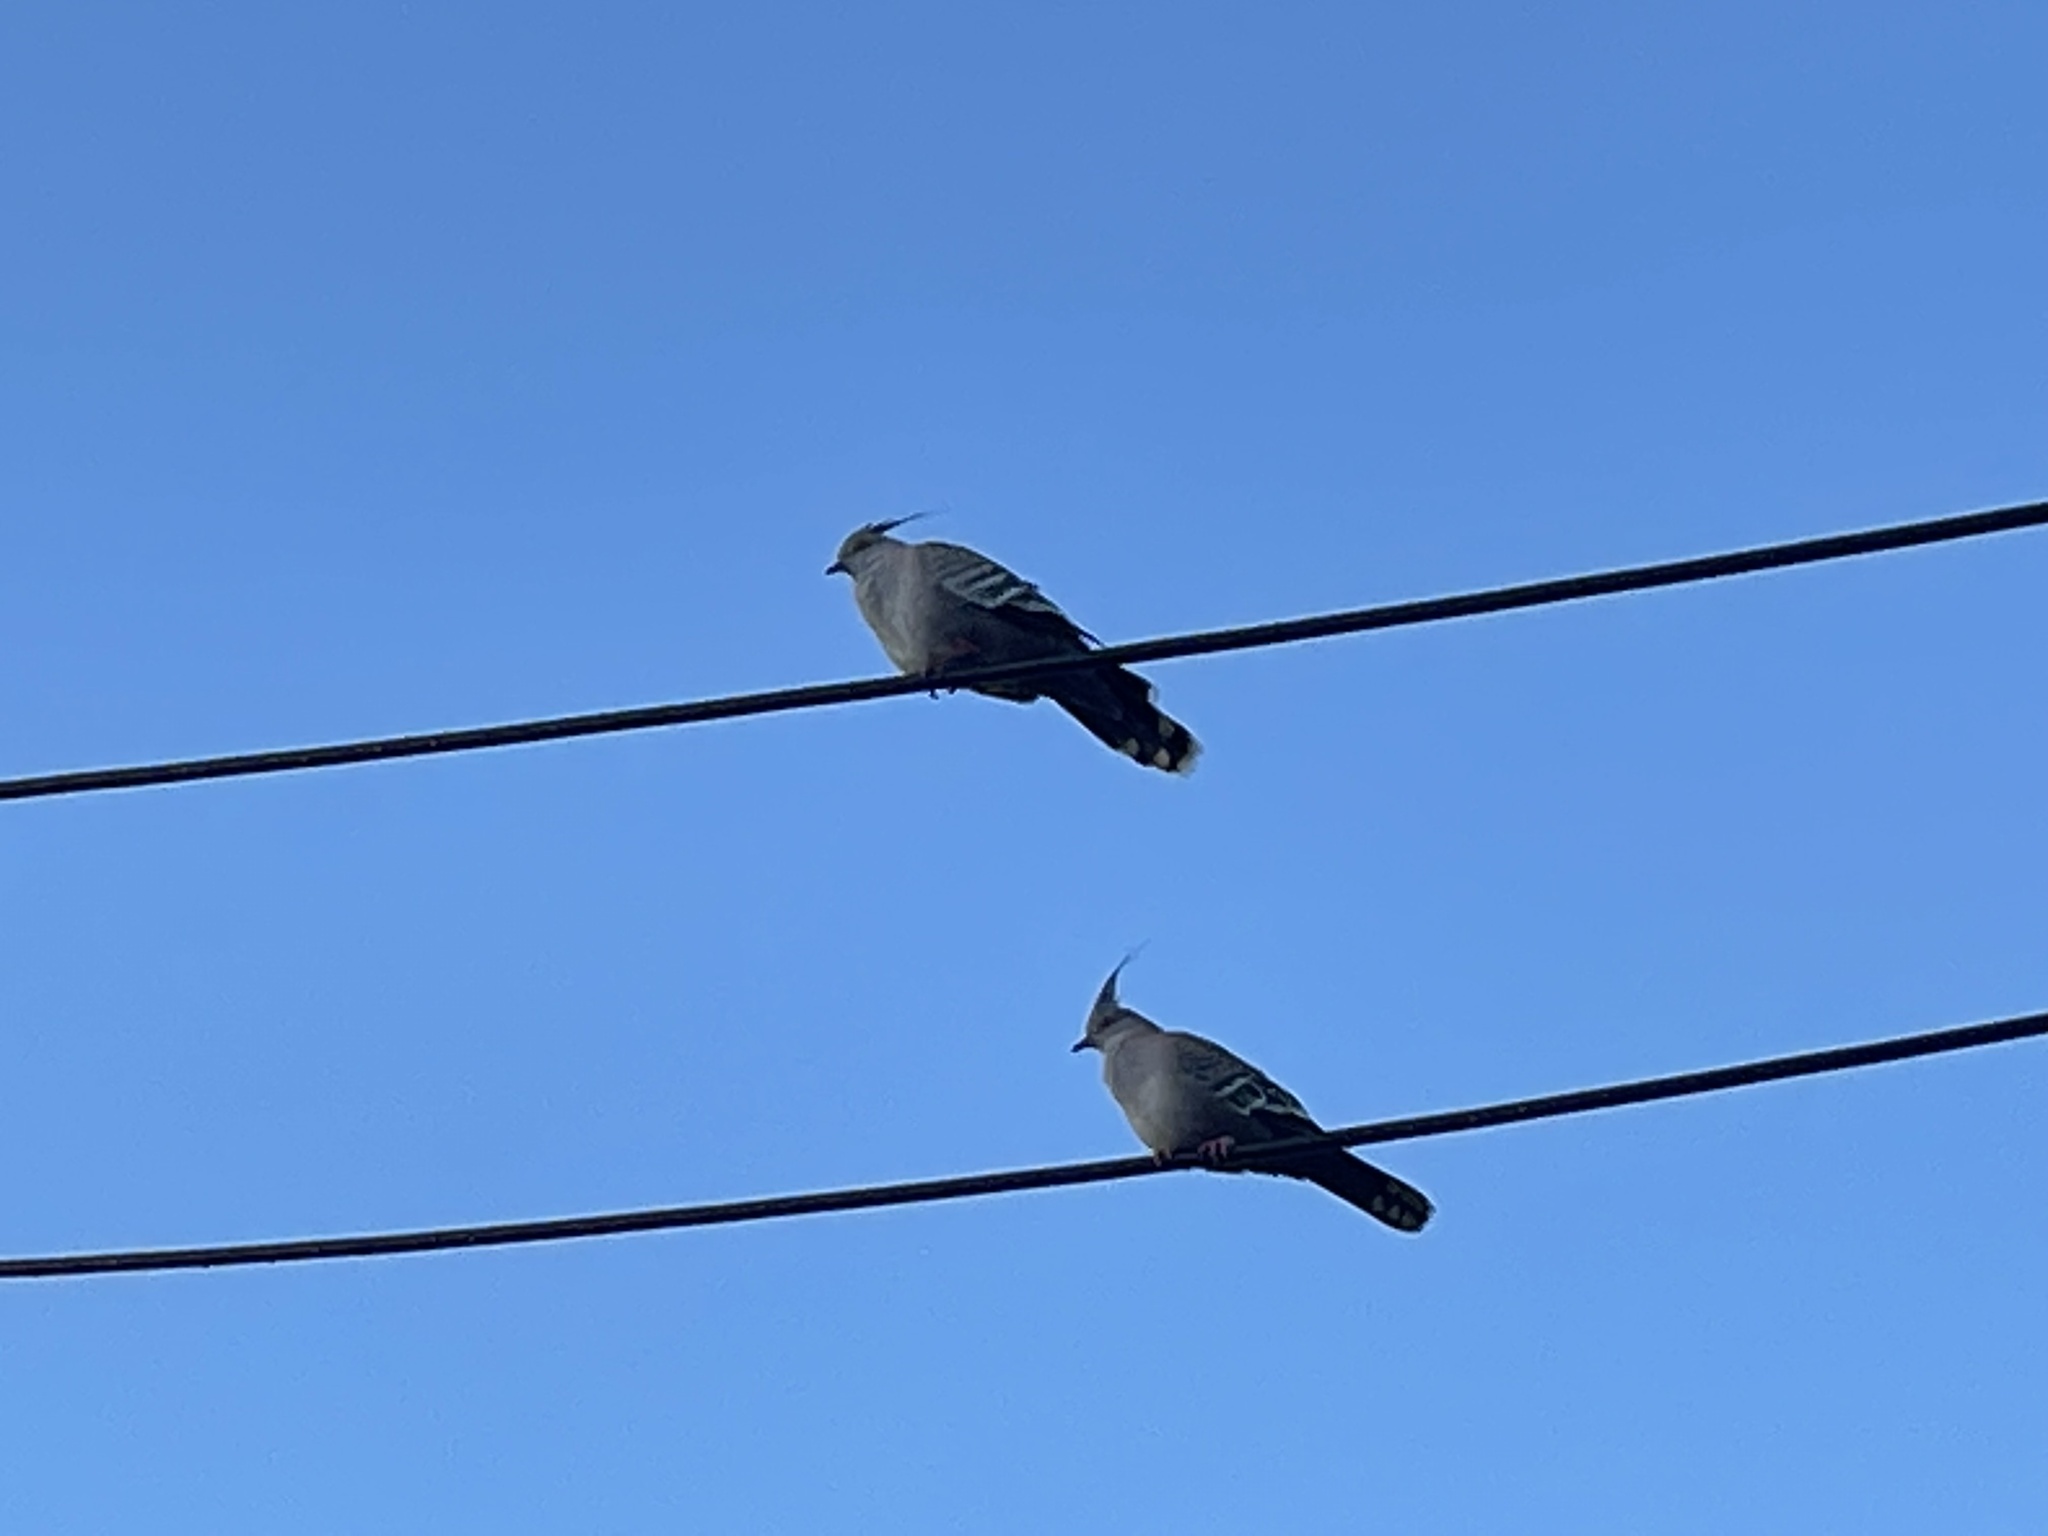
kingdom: Animalia
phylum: Chordata
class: Aves
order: Columbiformes
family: Columbidae
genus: Ocyphaps
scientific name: Ocyphaps lophotes
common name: Crested pigeon
